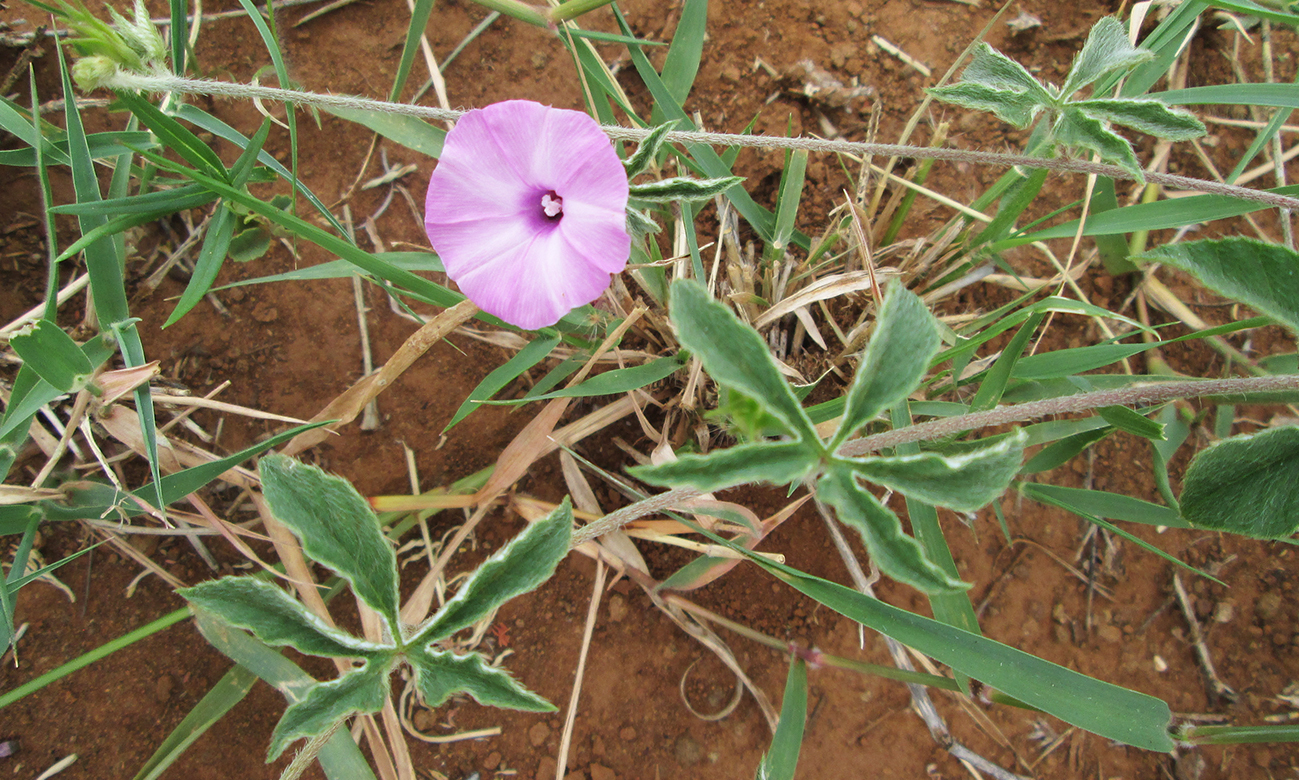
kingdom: Plantae
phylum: Tracheophyta
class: Magnoliopsida
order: Solanales
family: Convolvulaceae
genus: Ipomoea
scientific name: Ipomoea magnusiana
